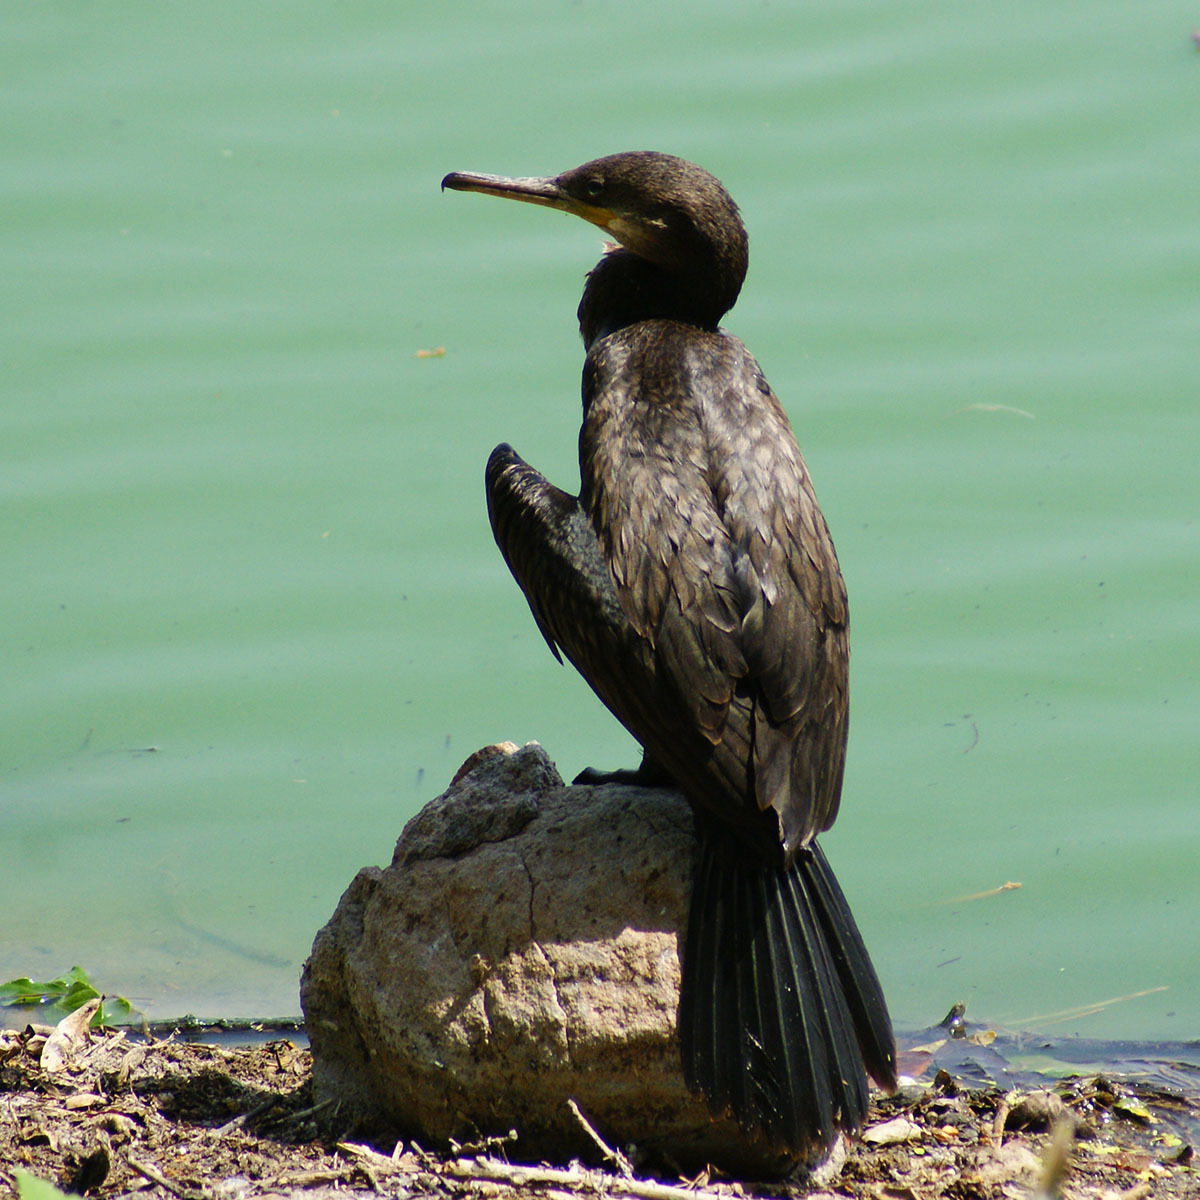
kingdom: Animalia
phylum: Chordata
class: Aves
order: Suliformes
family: Phalacrocoracidae
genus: Phalacrocorax
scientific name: Phalacrocorax fuscicollis
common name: Indian cormorant
